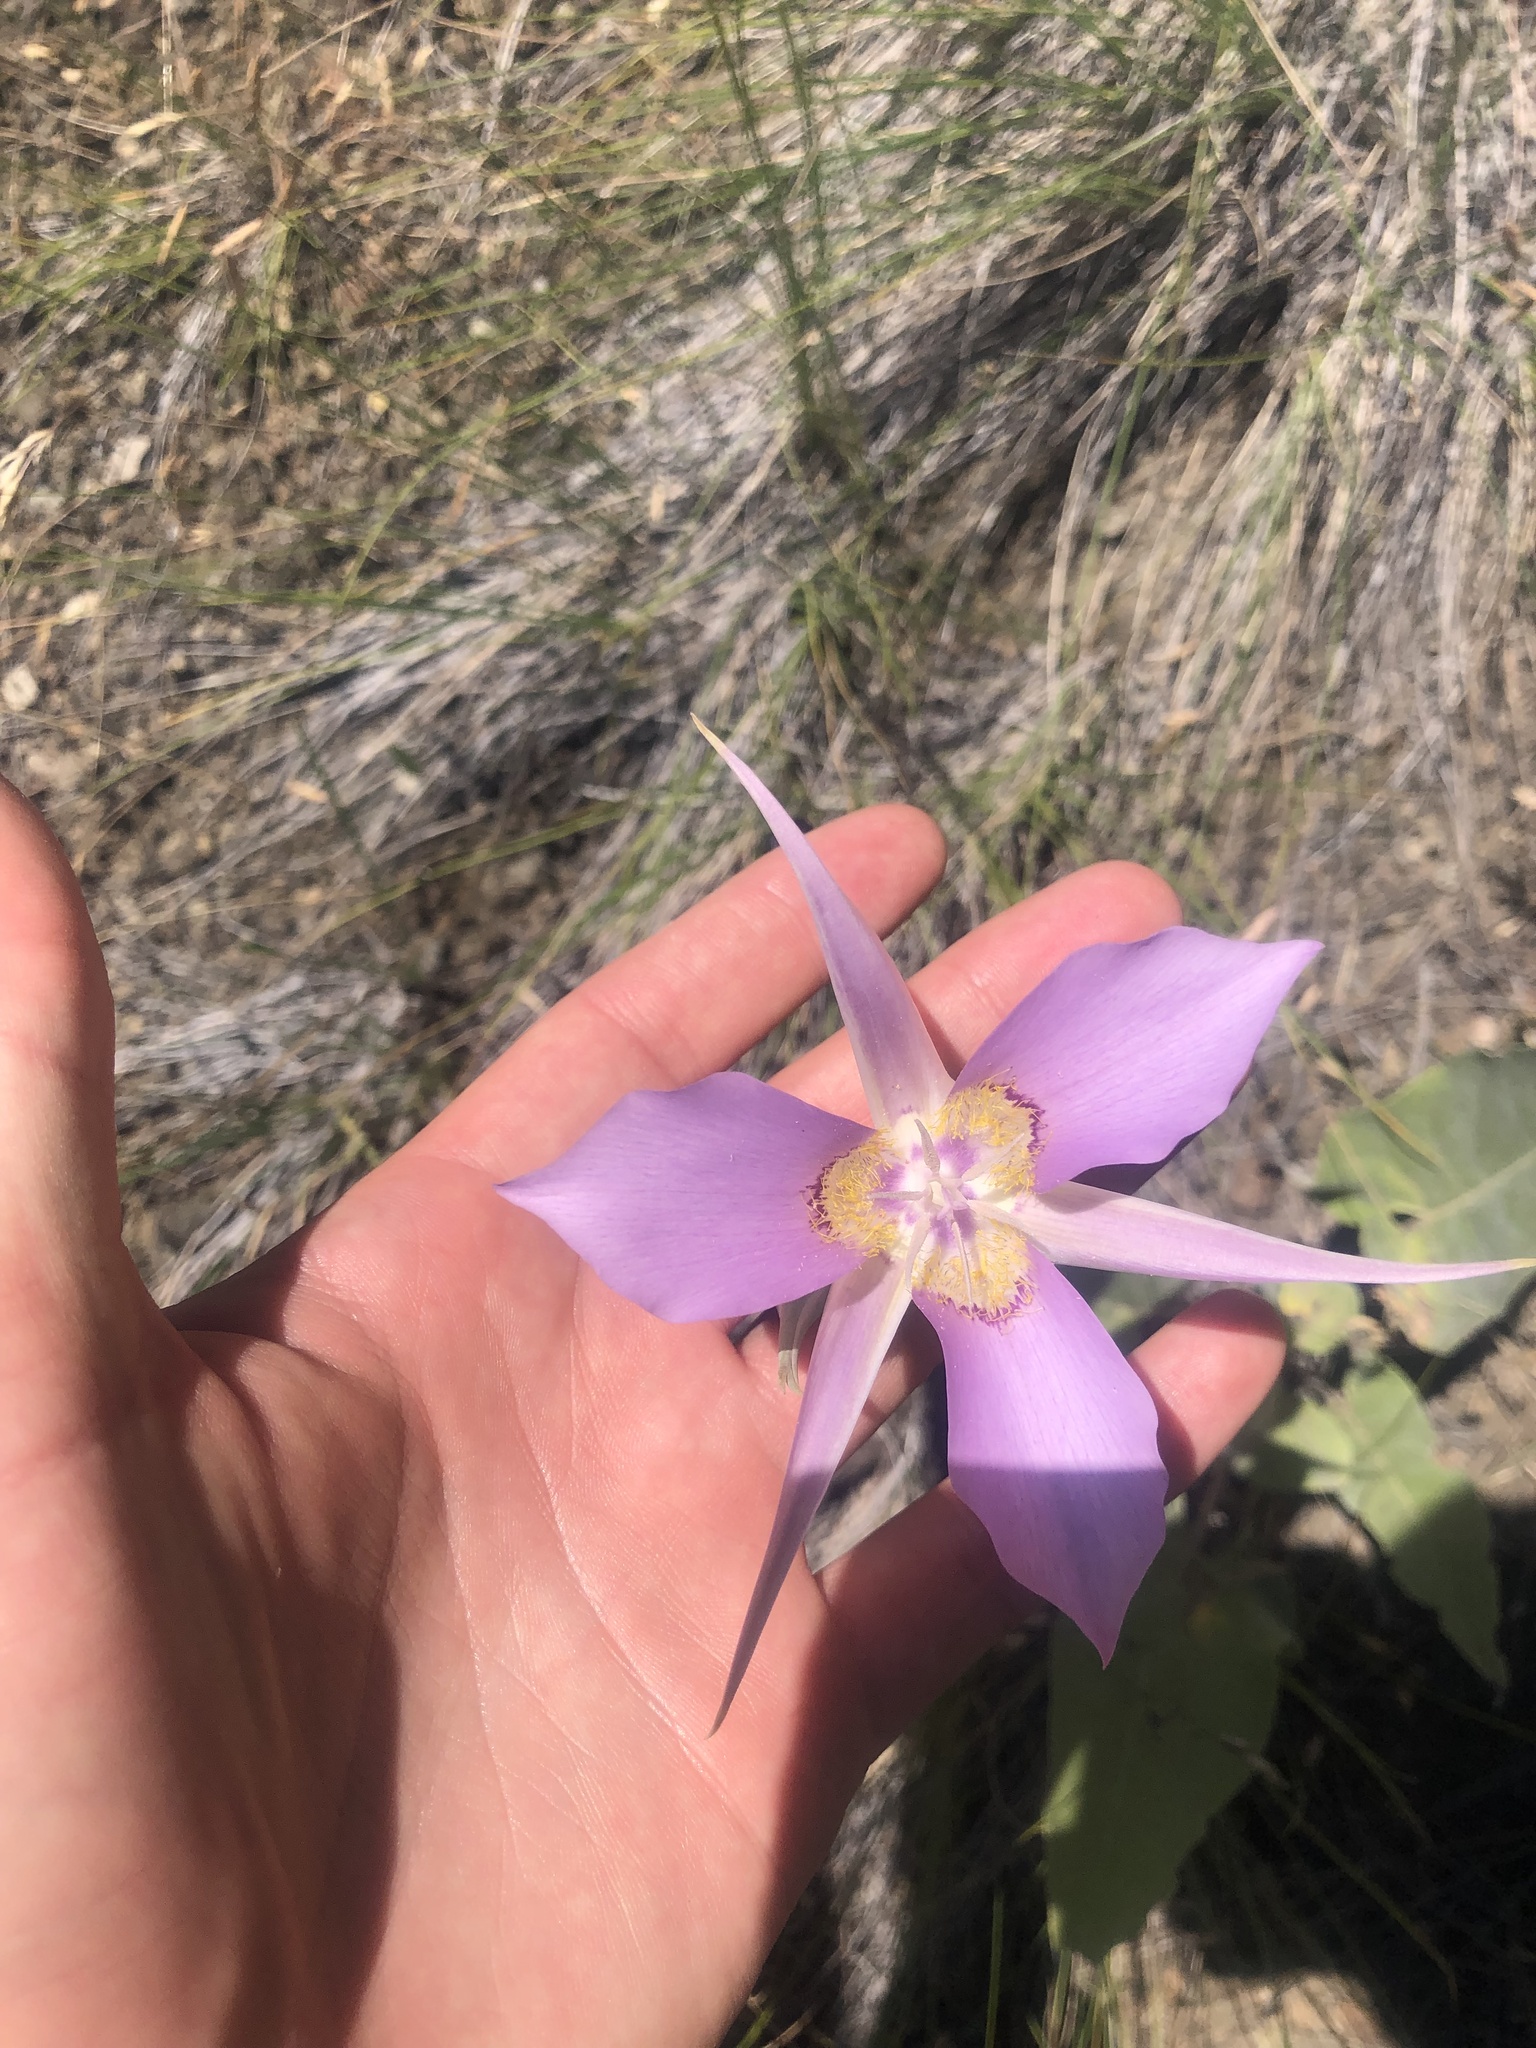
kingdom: Plantae
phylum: Tracheophyta
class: Liliopsida
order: Liliales
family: Liliaceae
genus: Calochortus
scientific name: Calochortus macrocarpus
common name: Green-band mariposa lily
